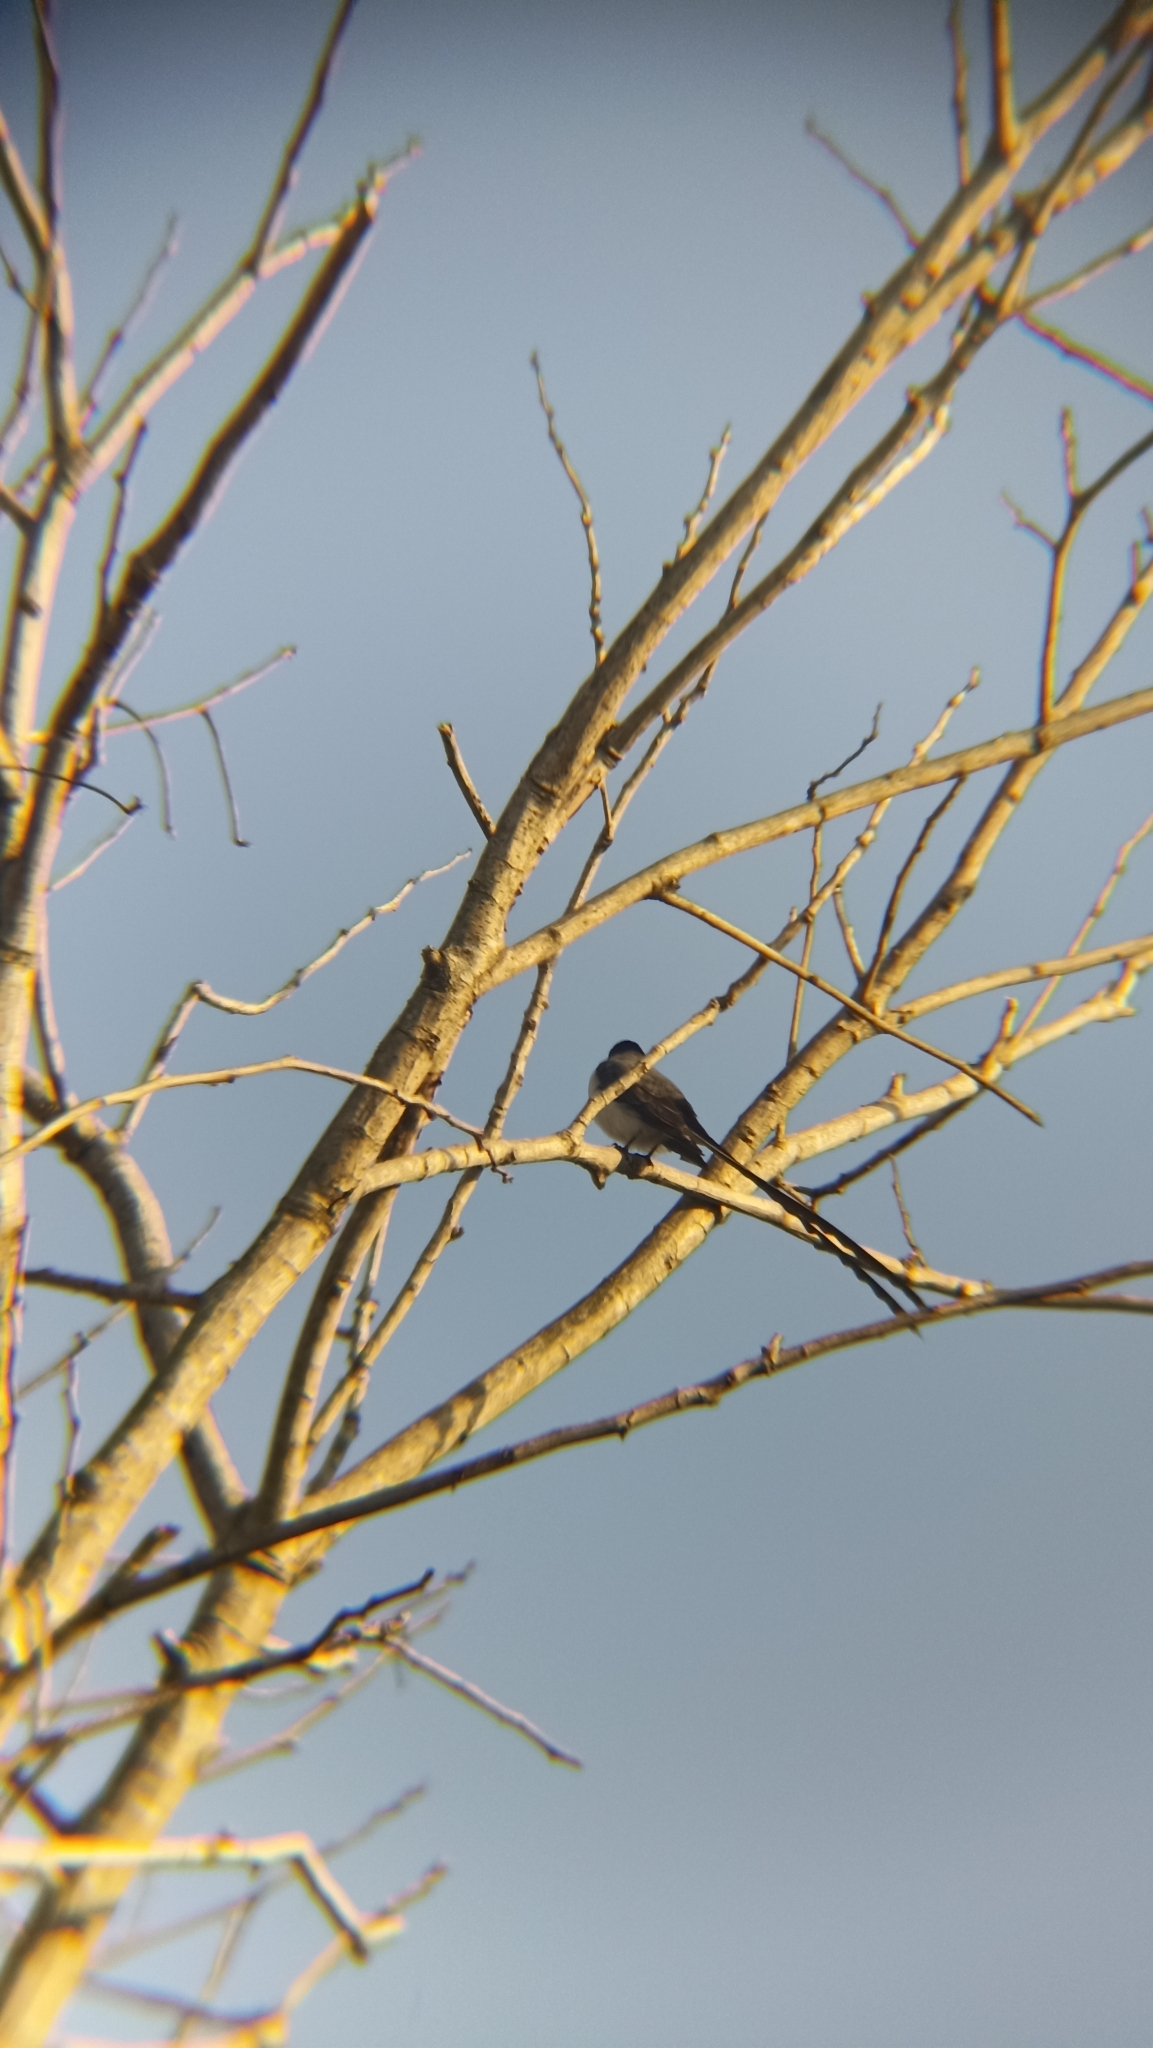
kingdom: Animalia
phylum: Chordata
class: Aves
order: Passeriformes
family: Tyrannidae
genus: Tyrannus
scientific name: Tyrannus savana
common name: Fork-tailed flycatcher
